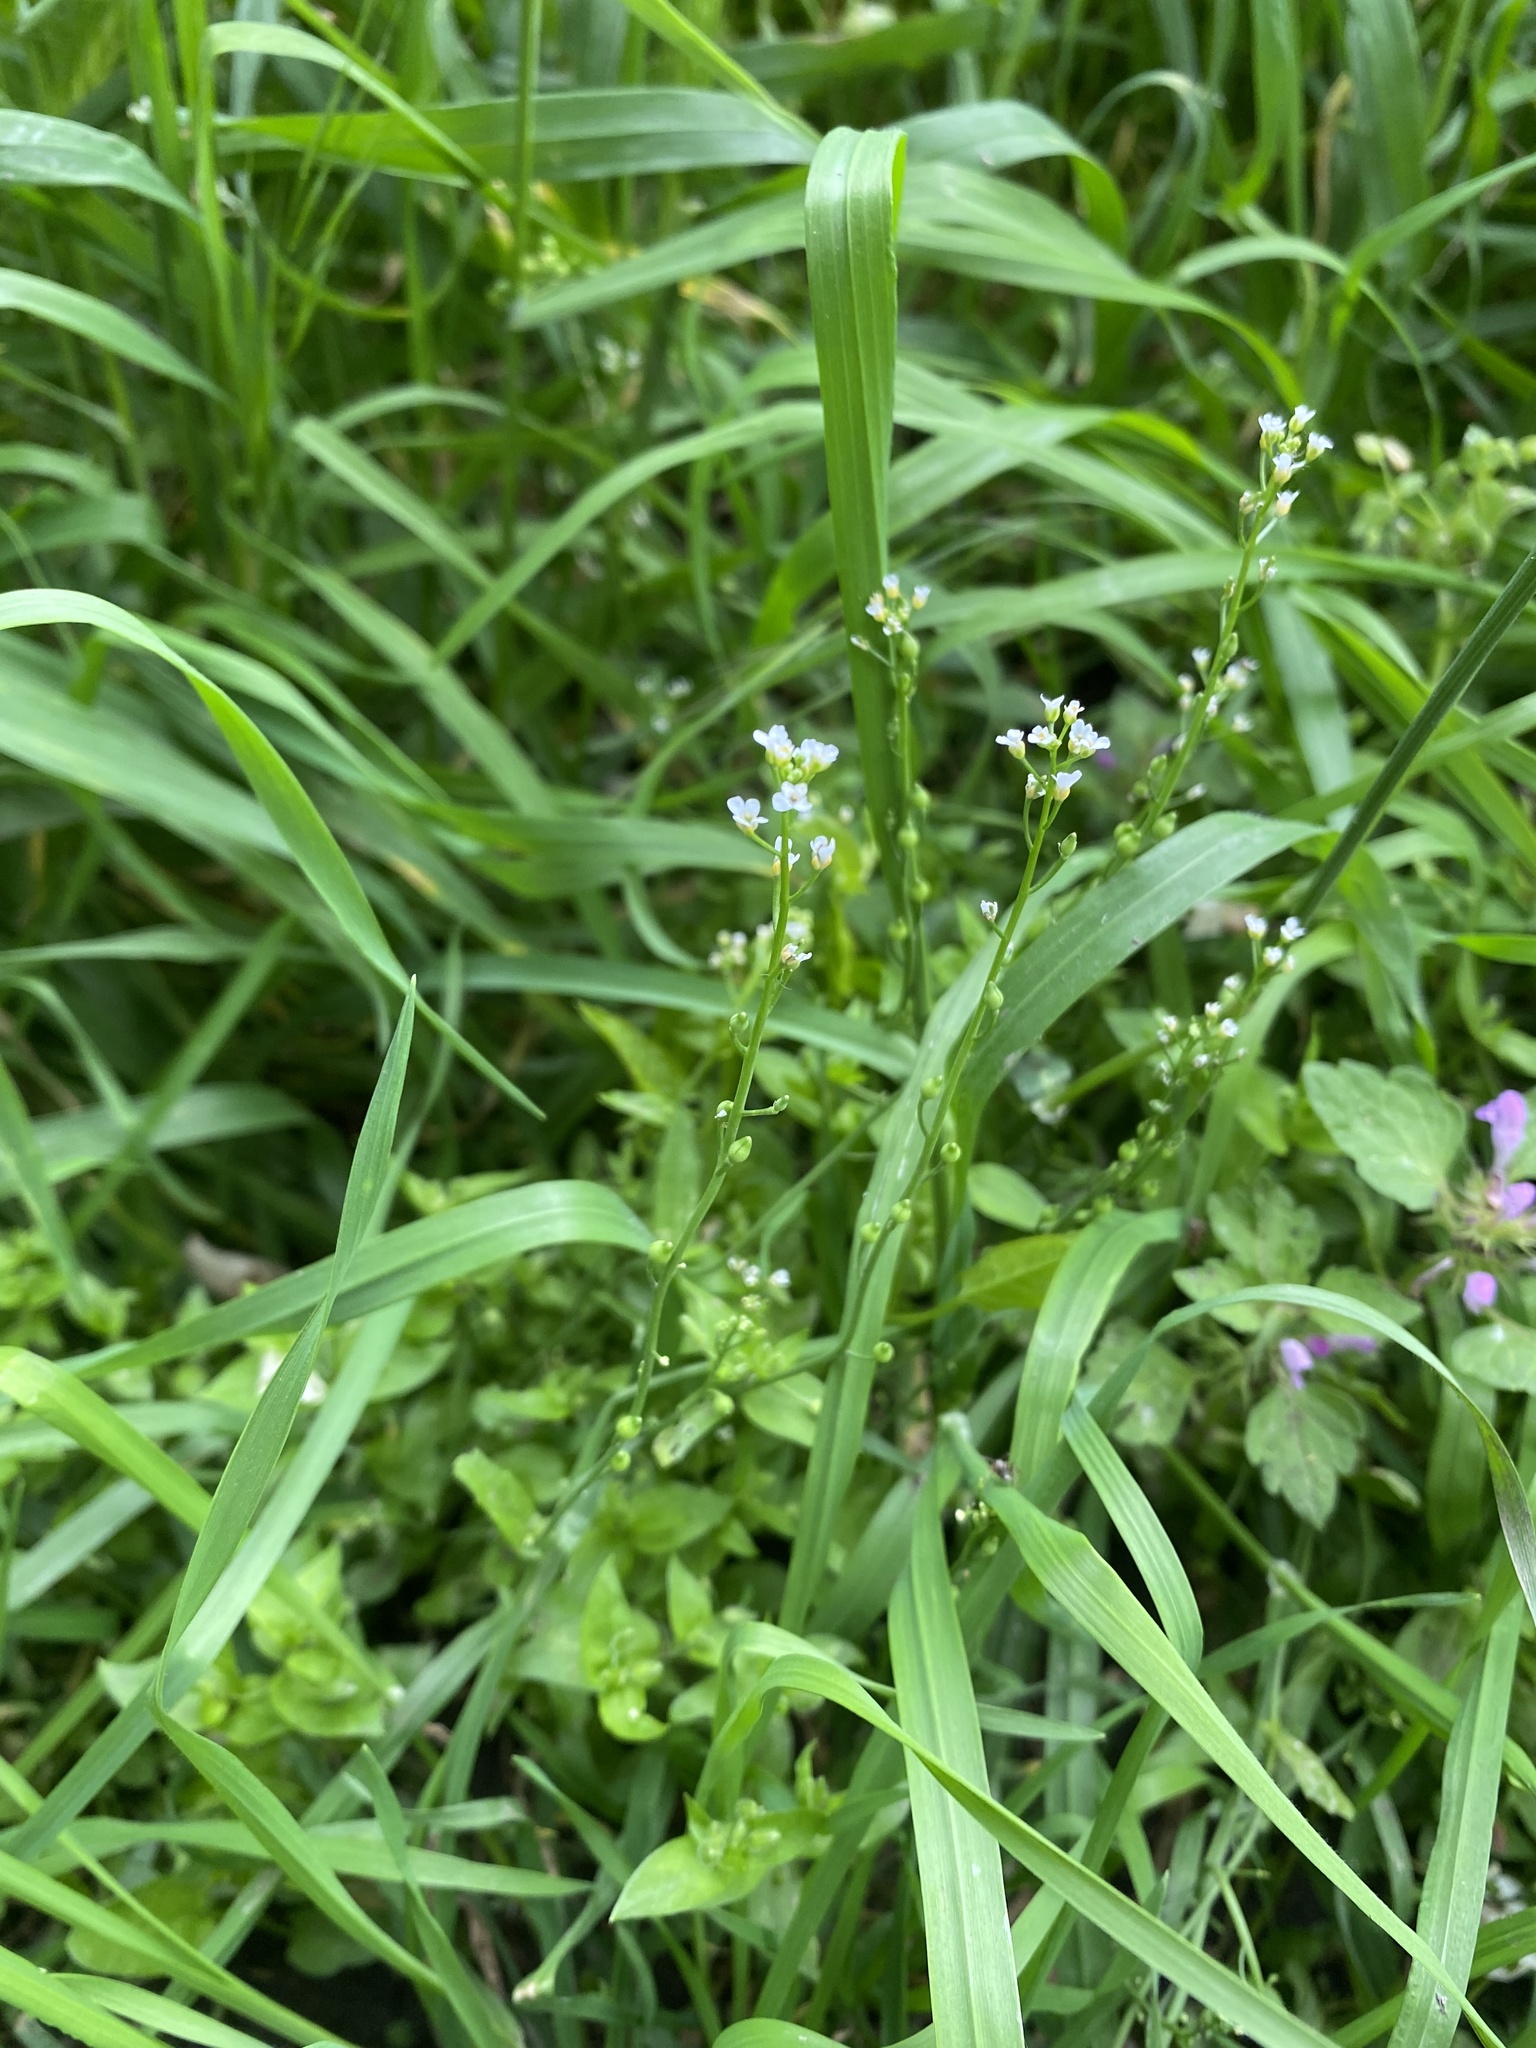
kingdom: Plantae
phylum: Tracheophyta
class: Magnoliopsida
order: Brassicales
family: Brassicaceae
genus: Calepina
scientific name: Calepina irregularis
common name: White ballmustard
